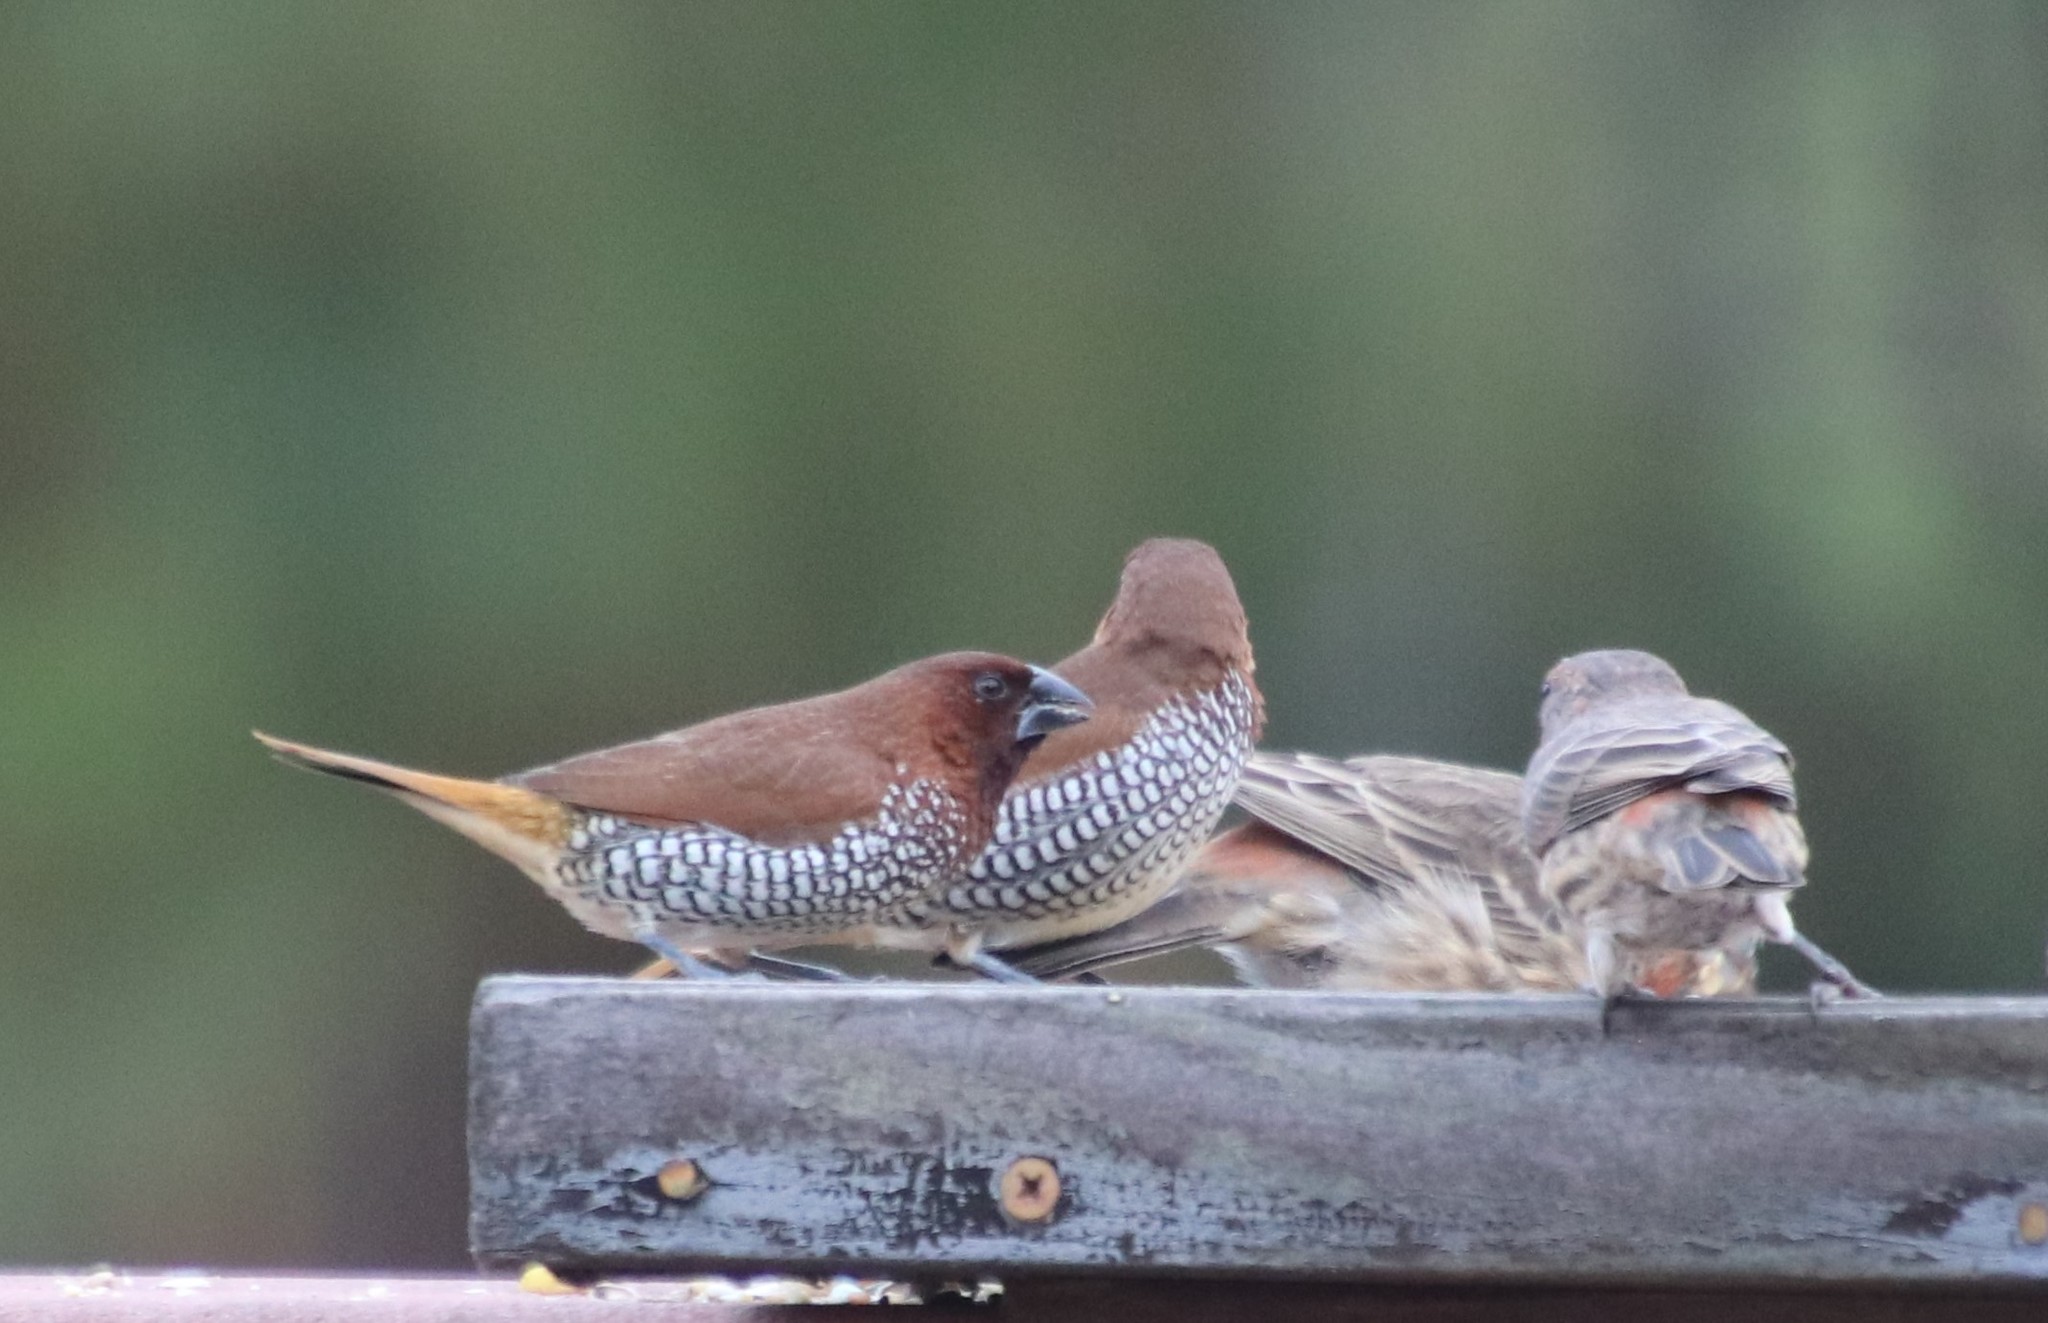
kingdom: Animalia
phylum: Chordata
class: Aves
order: Passeriformes
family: Estrildidae
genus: Lonchura
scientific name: Lonchura punctulata
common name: Scaly-breasted munia
